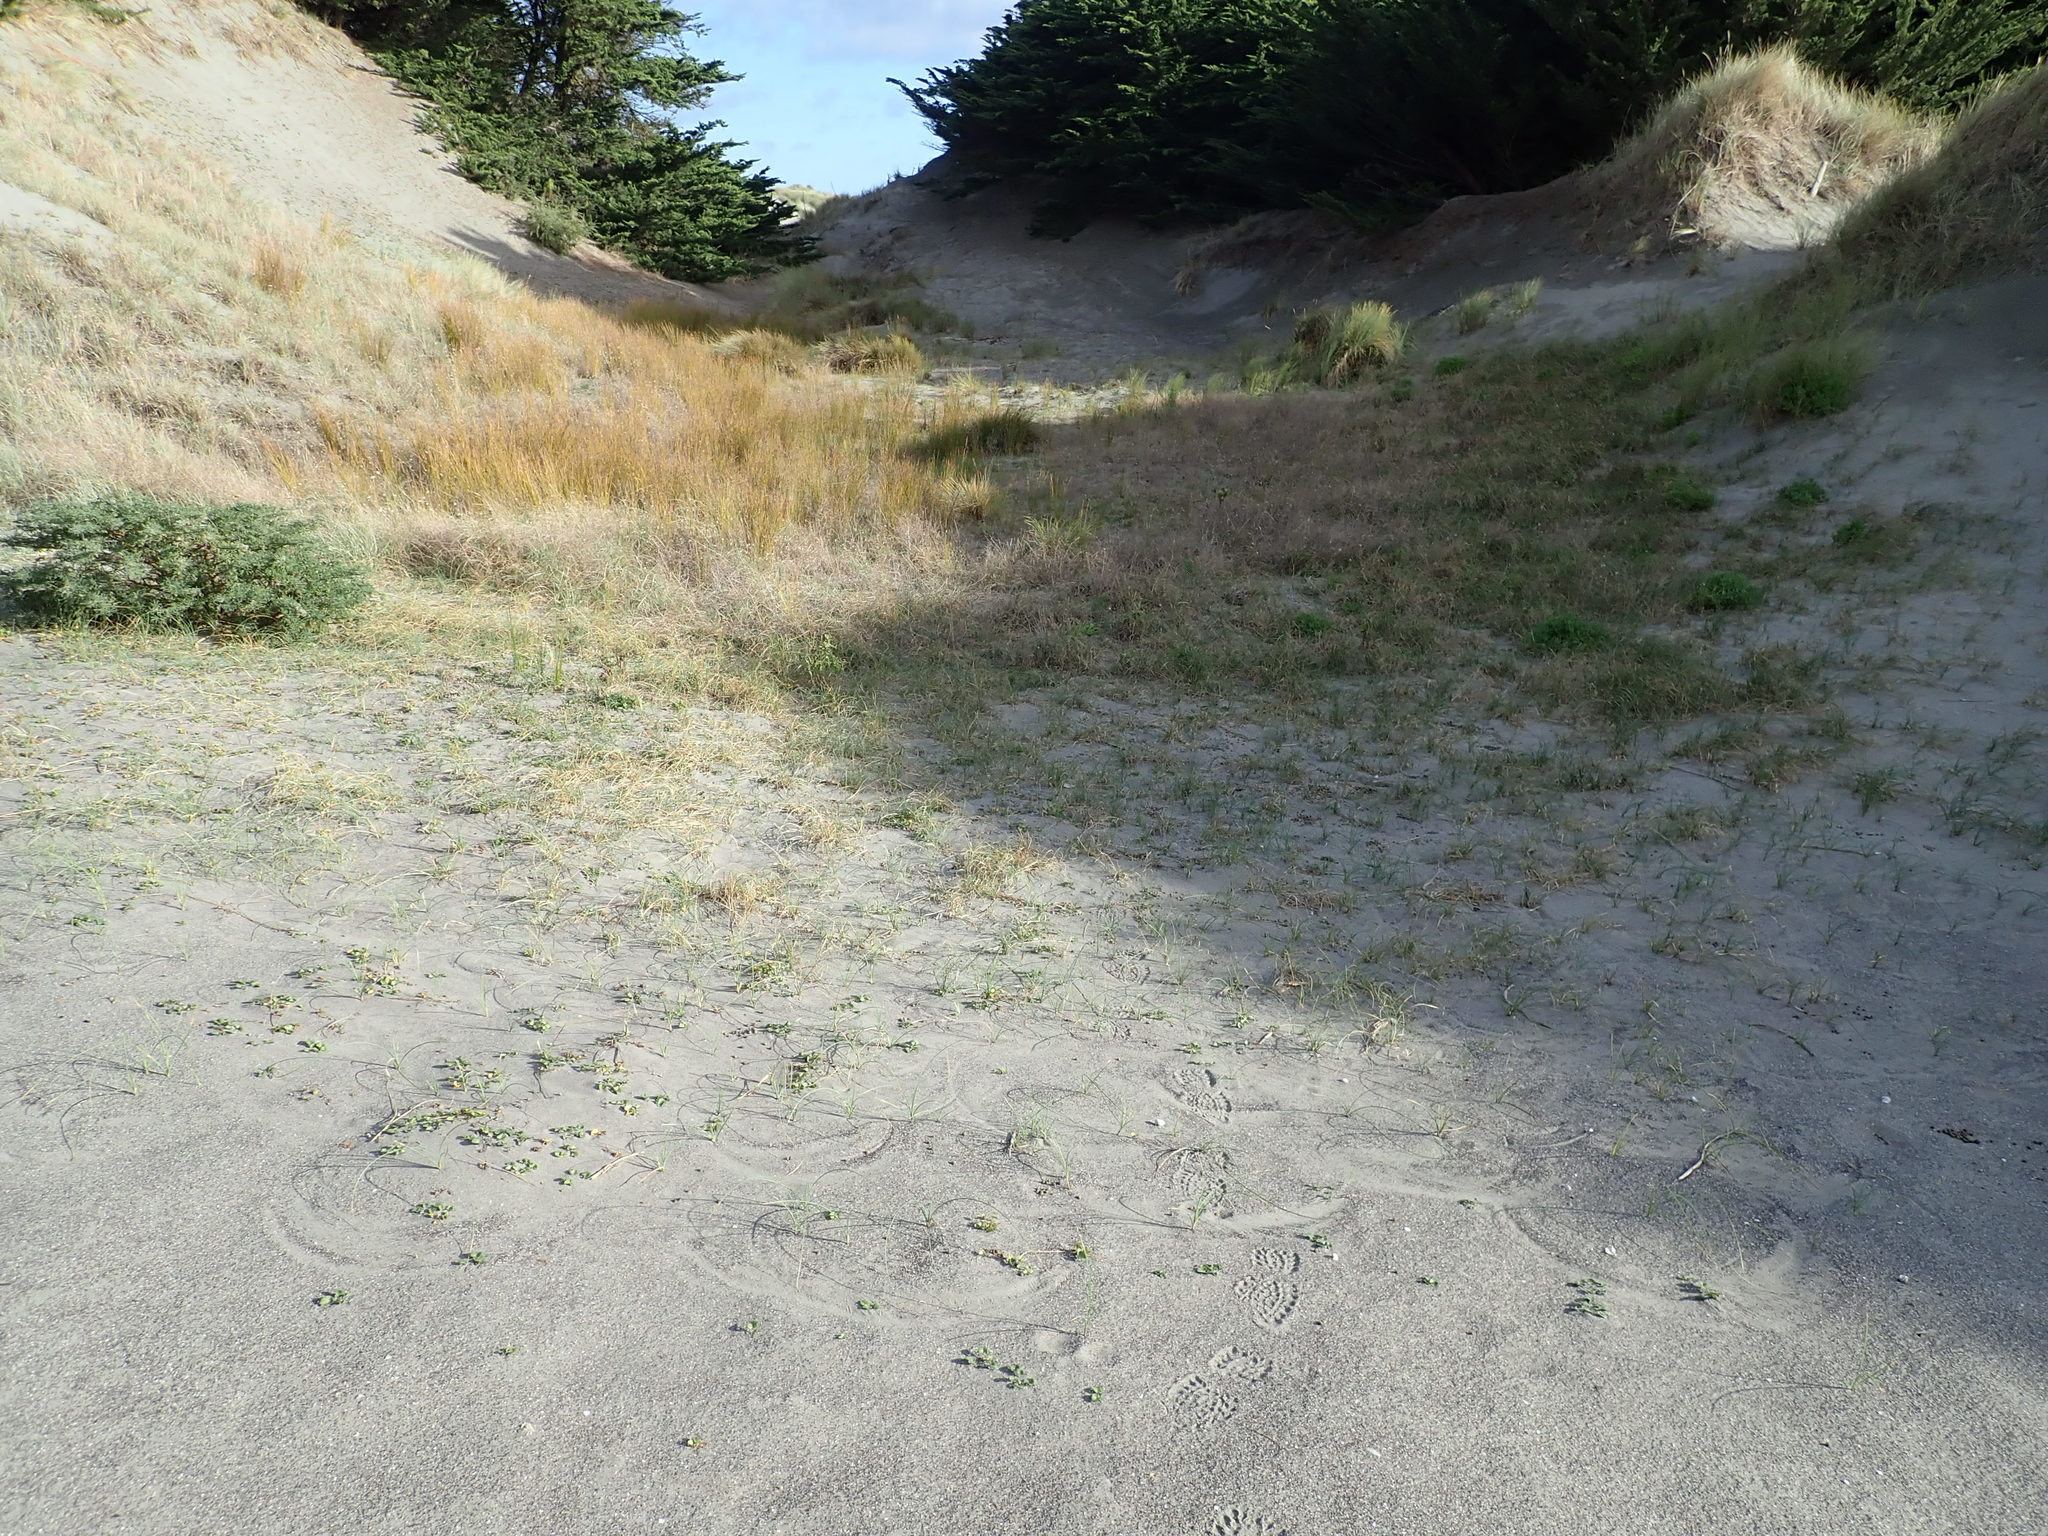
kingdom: Plantae
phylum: Tracheophyta
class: Liliopsida
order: Poales
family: Cyperaceae
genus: Carex
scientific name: Carex pumila
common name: Dwarf sedge
